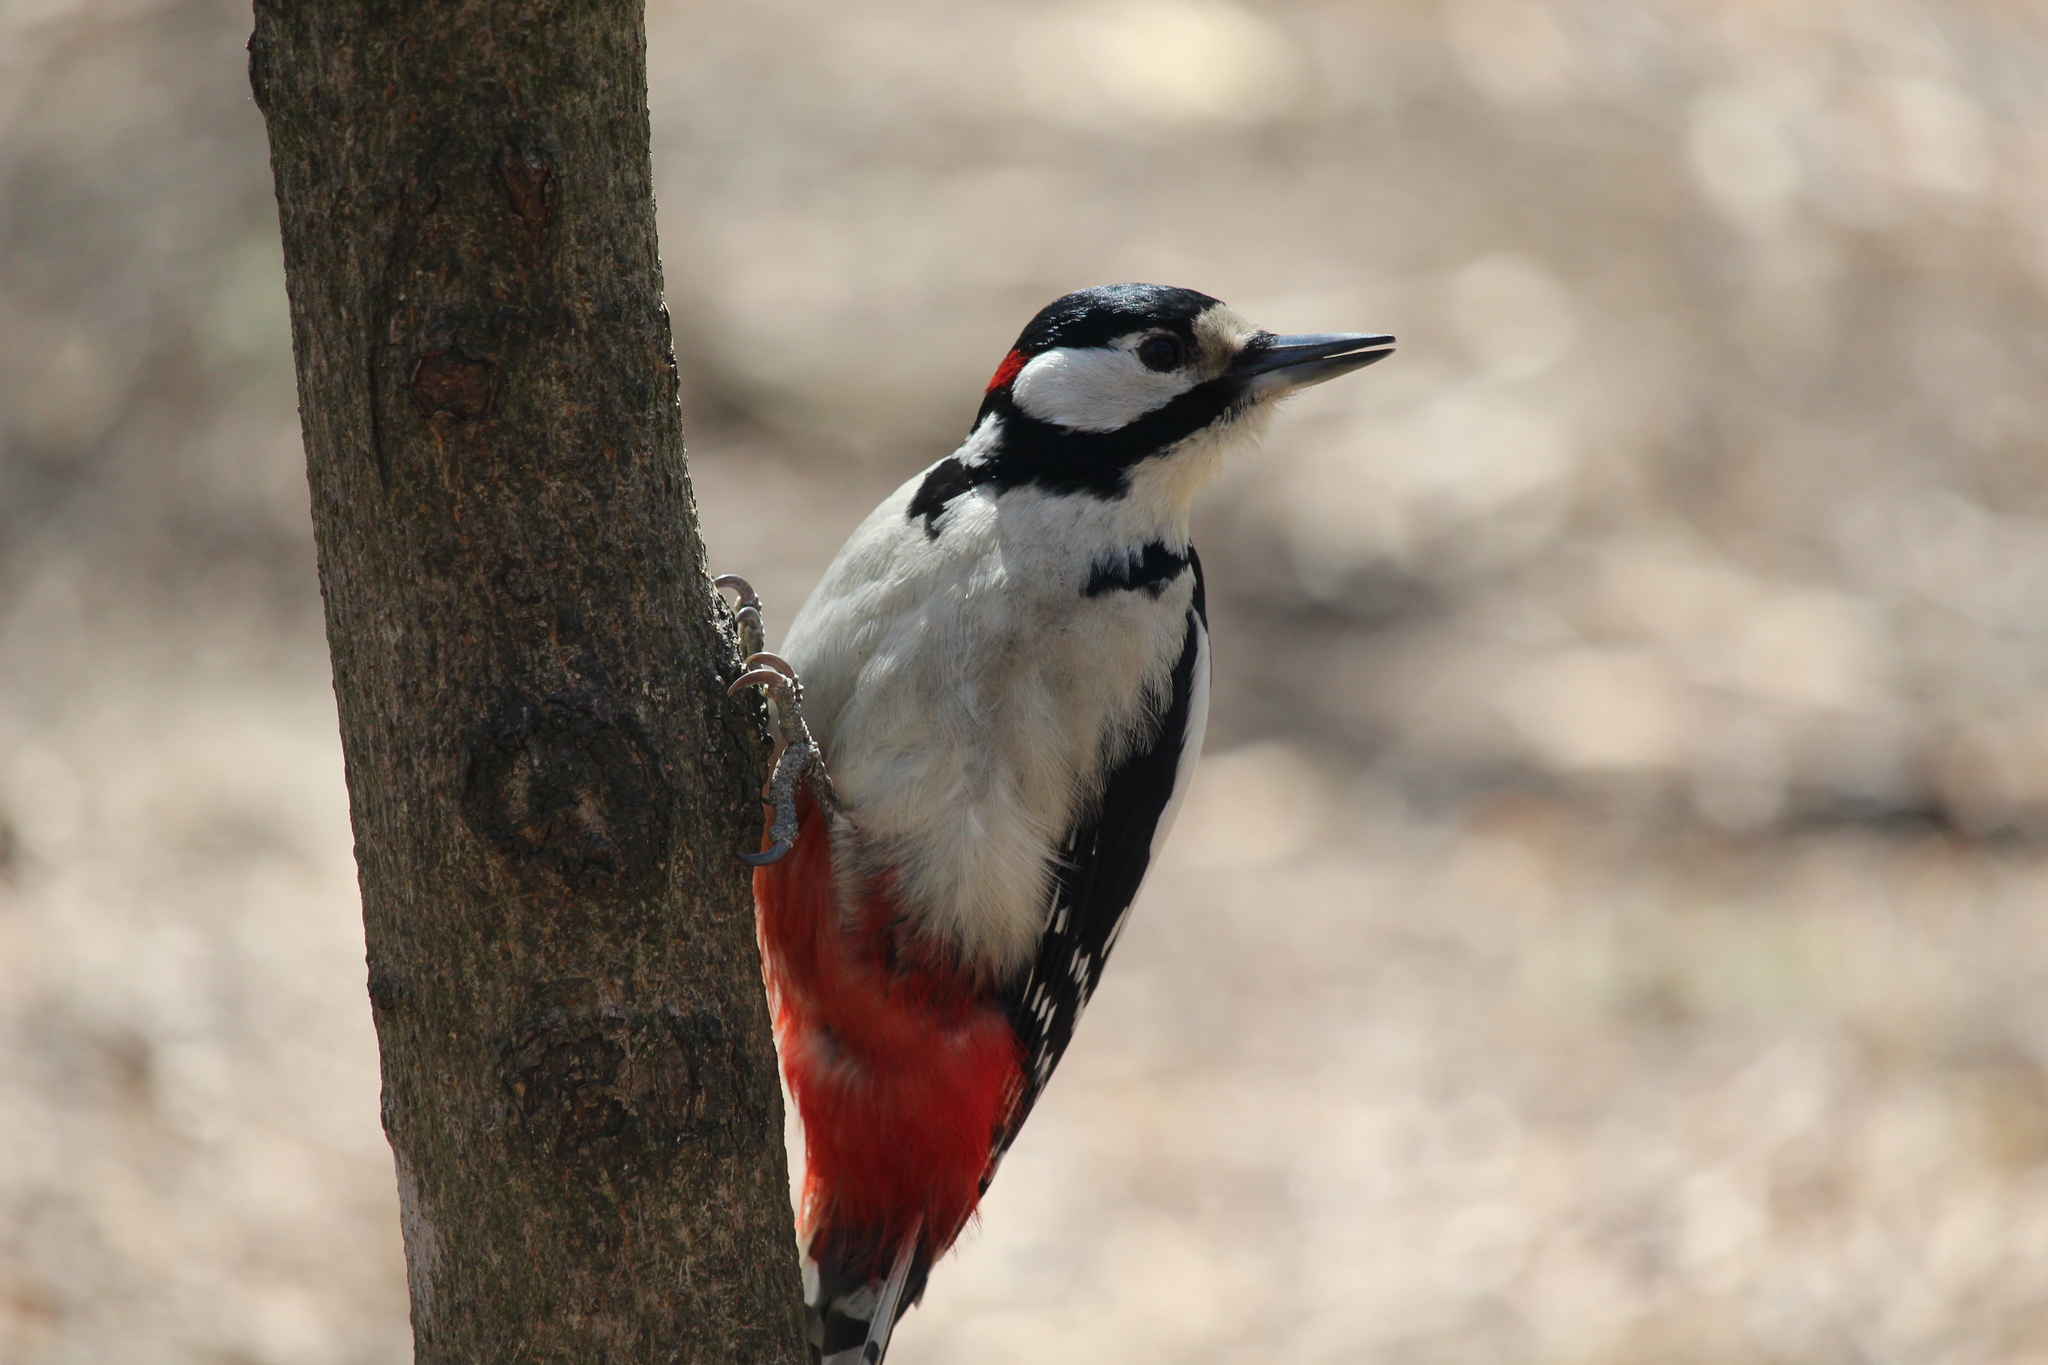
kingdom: Animalia
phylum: Chordata
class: Aves
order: Piciformes
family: Picidae
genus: Dendrocopos
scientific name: Dendrocopos major
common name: Great spotted woodpecker
